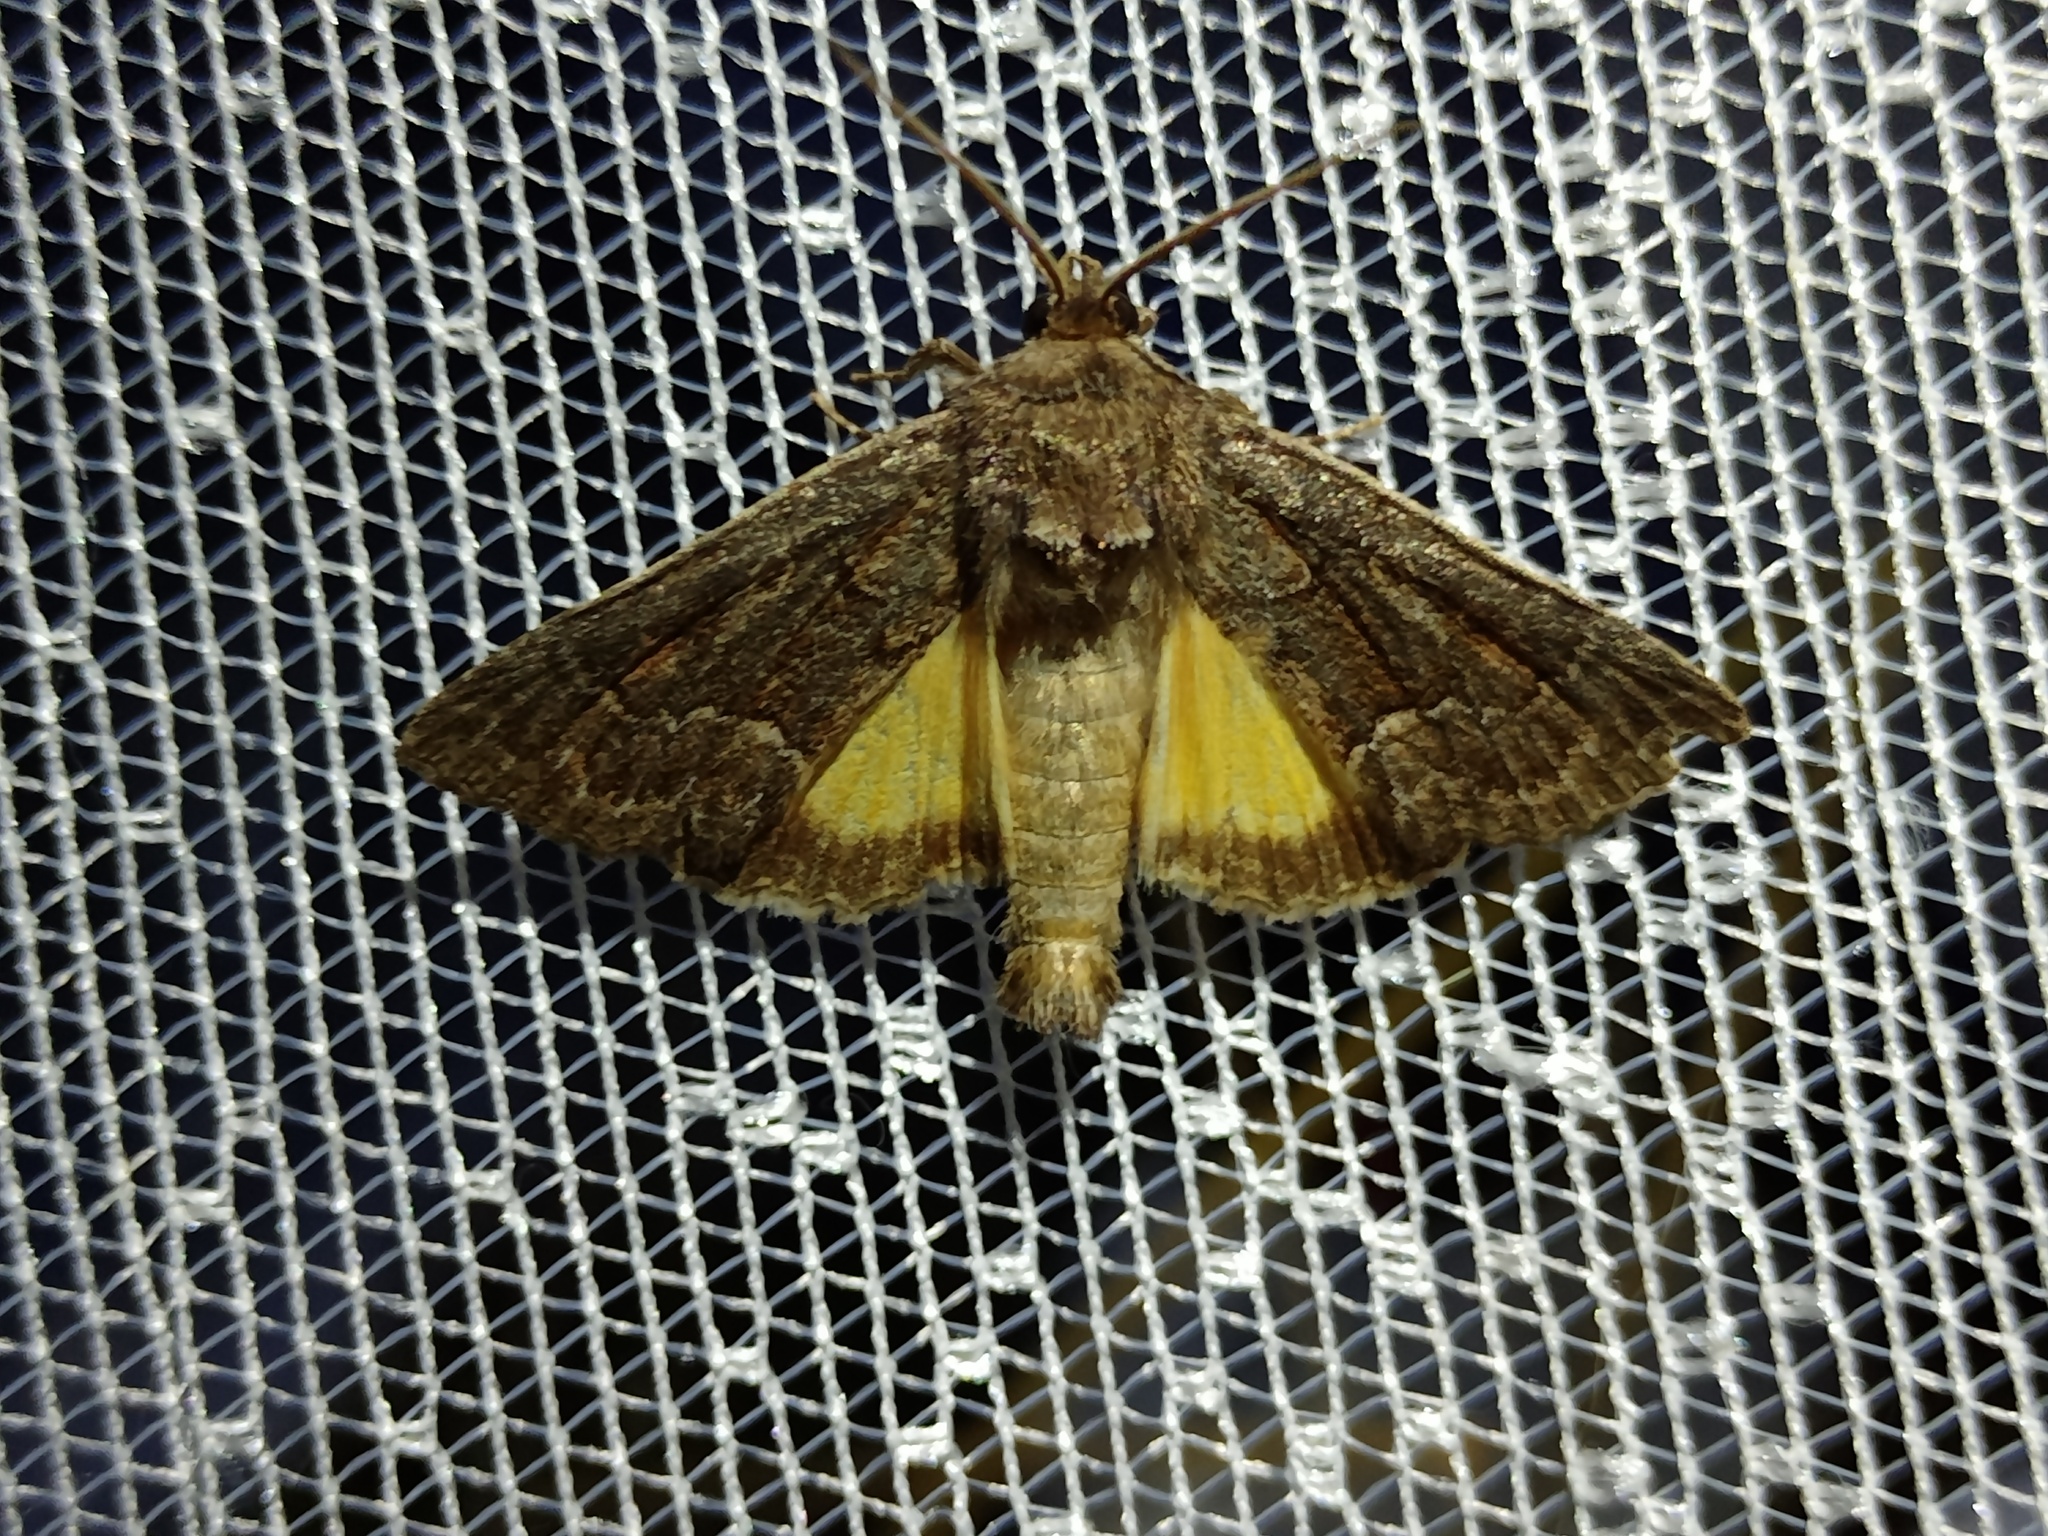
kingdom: Animalia
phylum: Arthropoda
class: Insecta
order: Lepidoptera
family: Noctuidae
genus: Thalpophila
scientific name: Thalpophila matura
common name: Straw underwing
